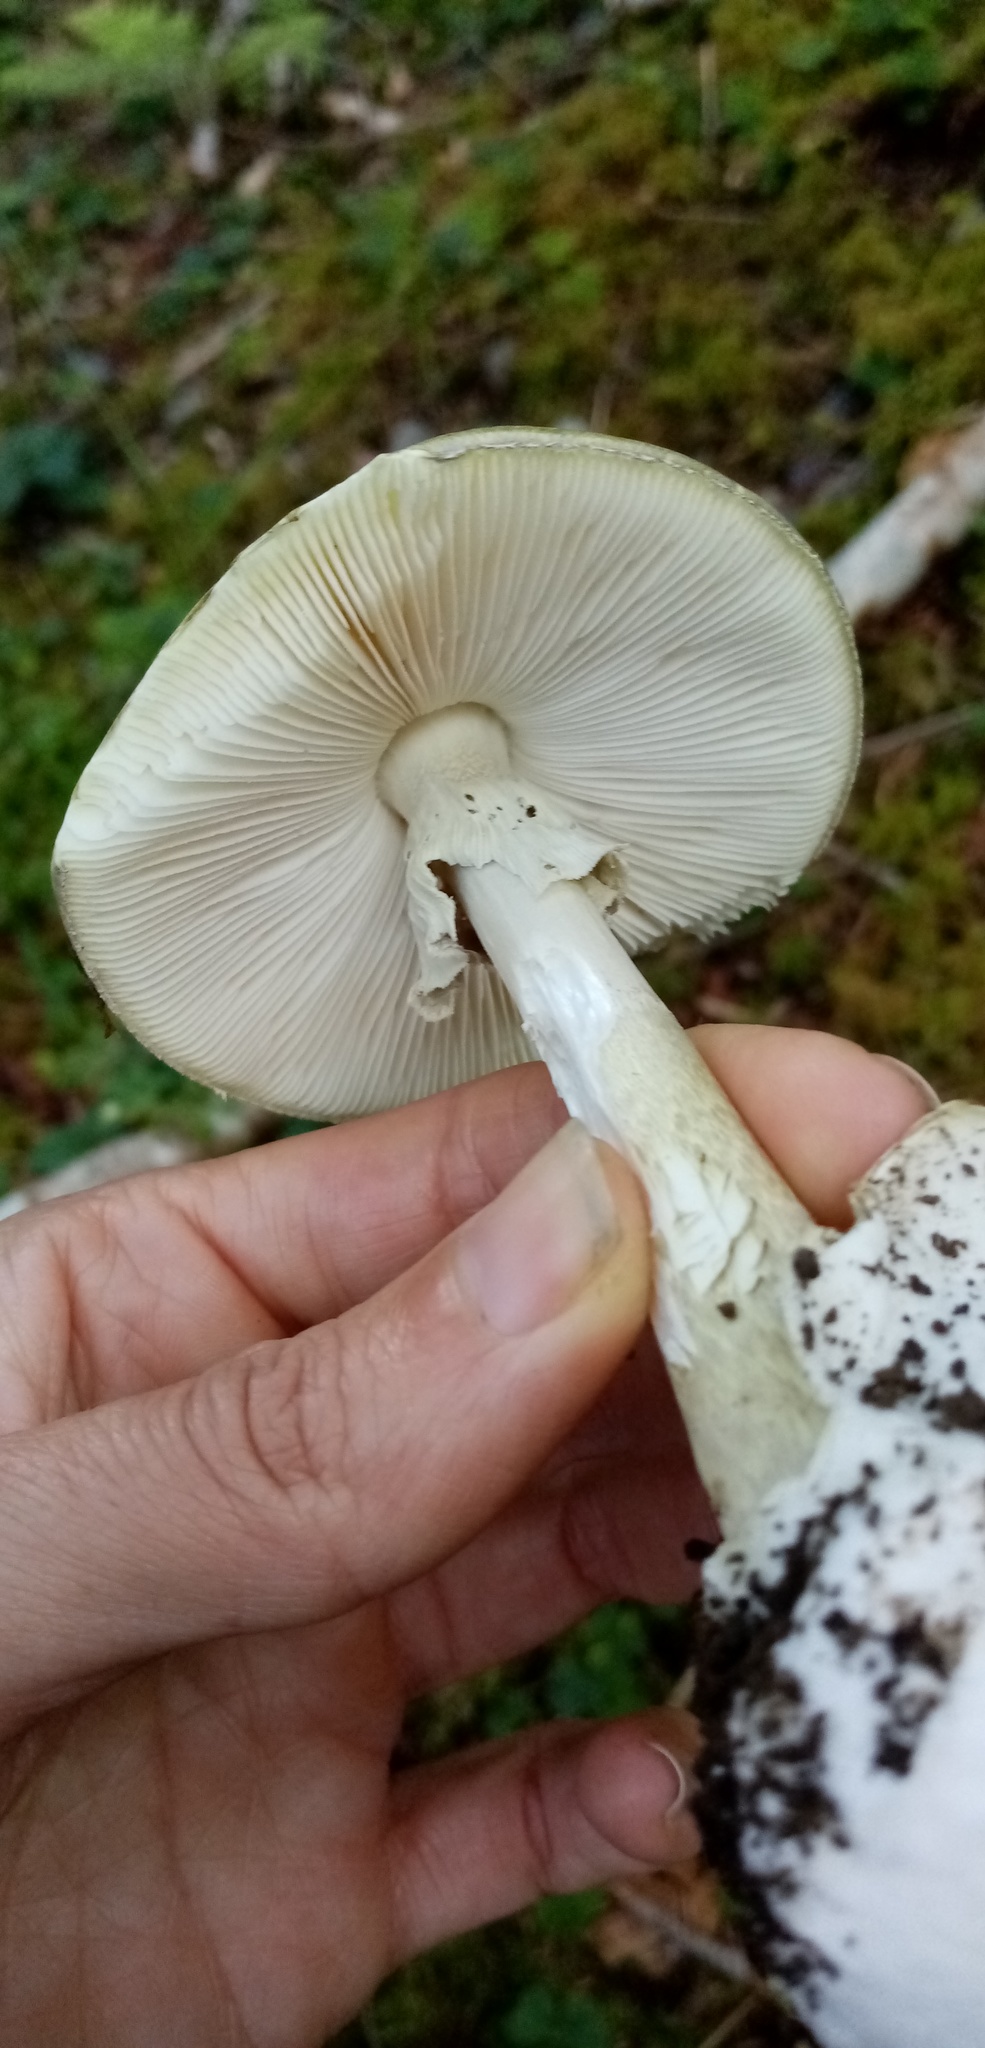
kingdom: Fungi
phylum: Basidiomycota
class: Agaricomycetes
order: Agaricales
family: Amanitaceae
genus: Amanita
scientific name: Amanita phalloides
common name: Death cap
